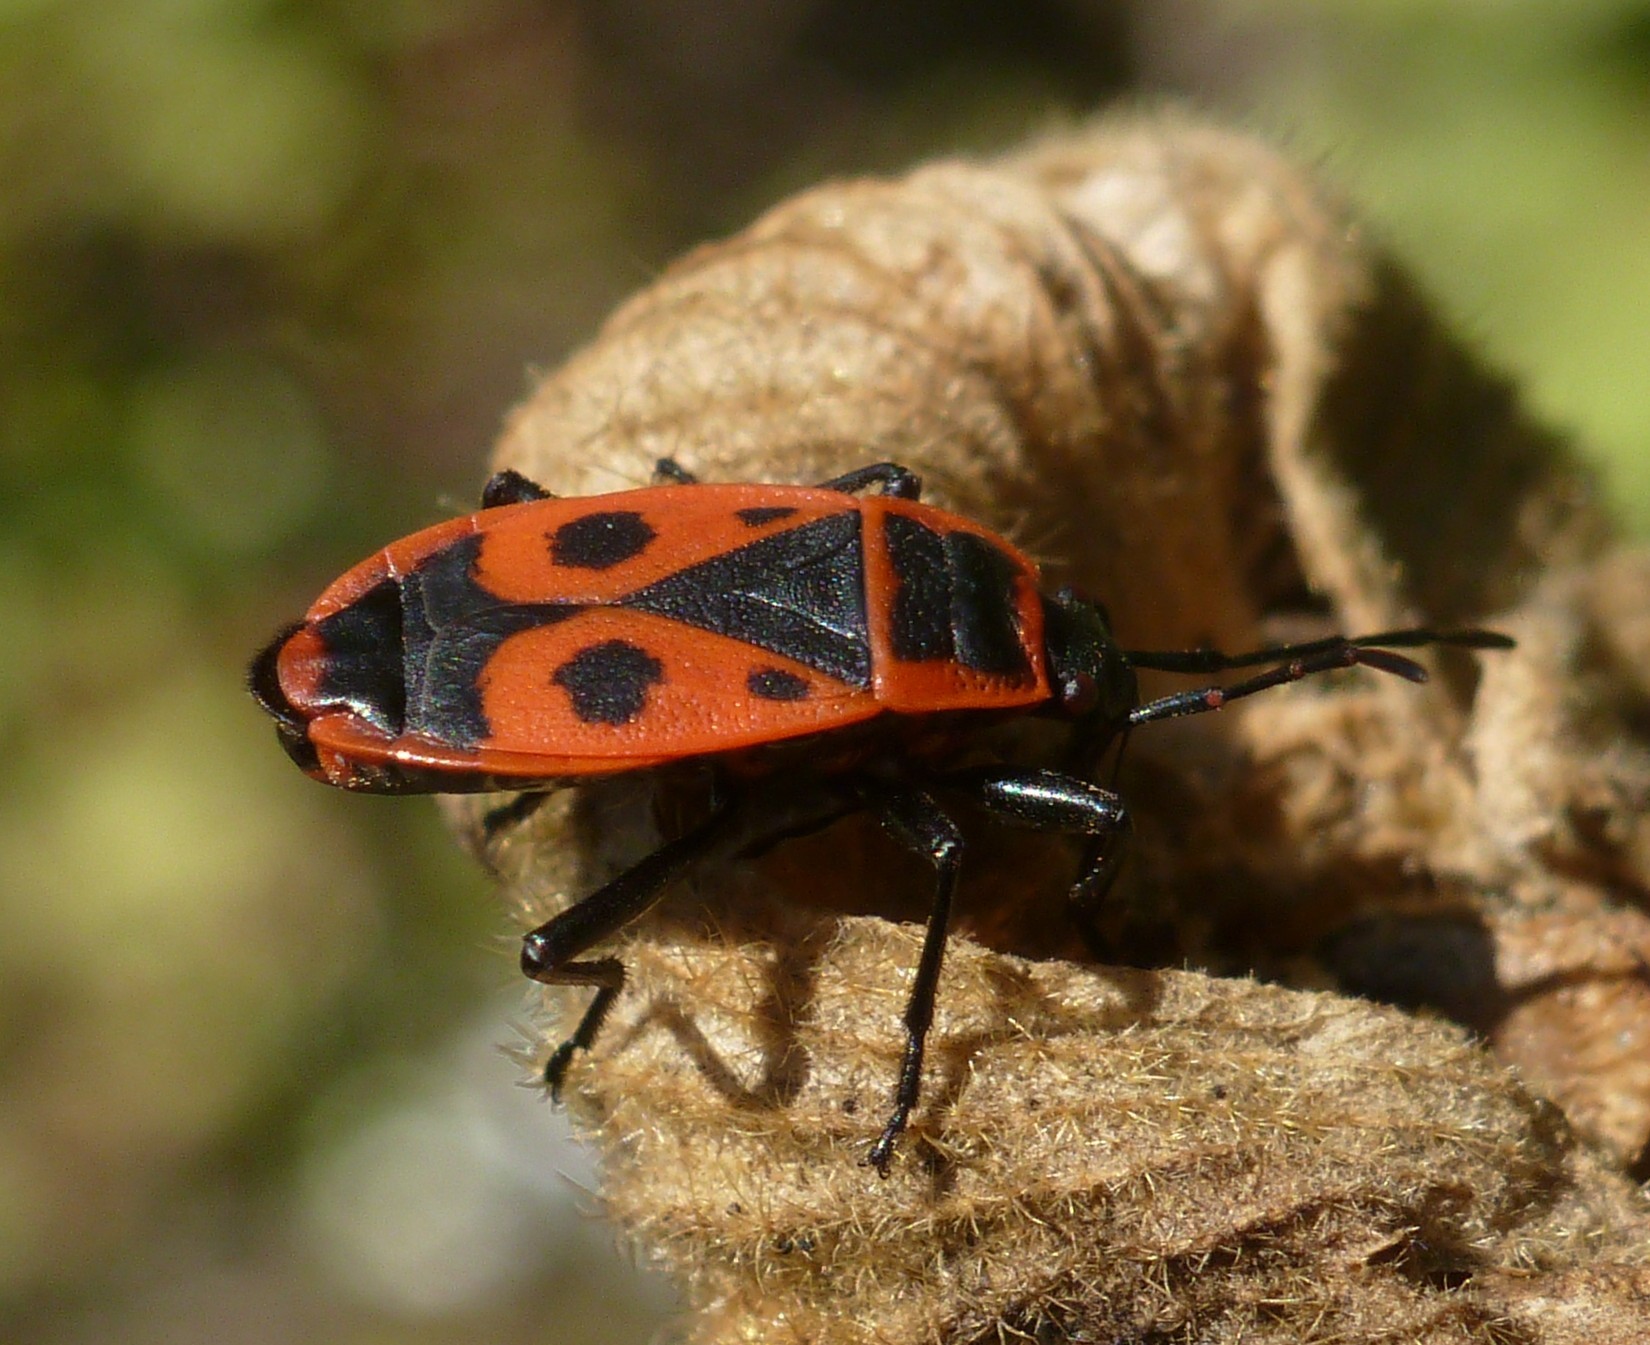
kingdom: Animalia
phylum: Arthropoda
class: Insecta
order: Hemiptera
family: Pyrrhocoridae
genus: Pyrrhocoris
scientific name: Pyrrhocoris apterus
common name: Firebug
